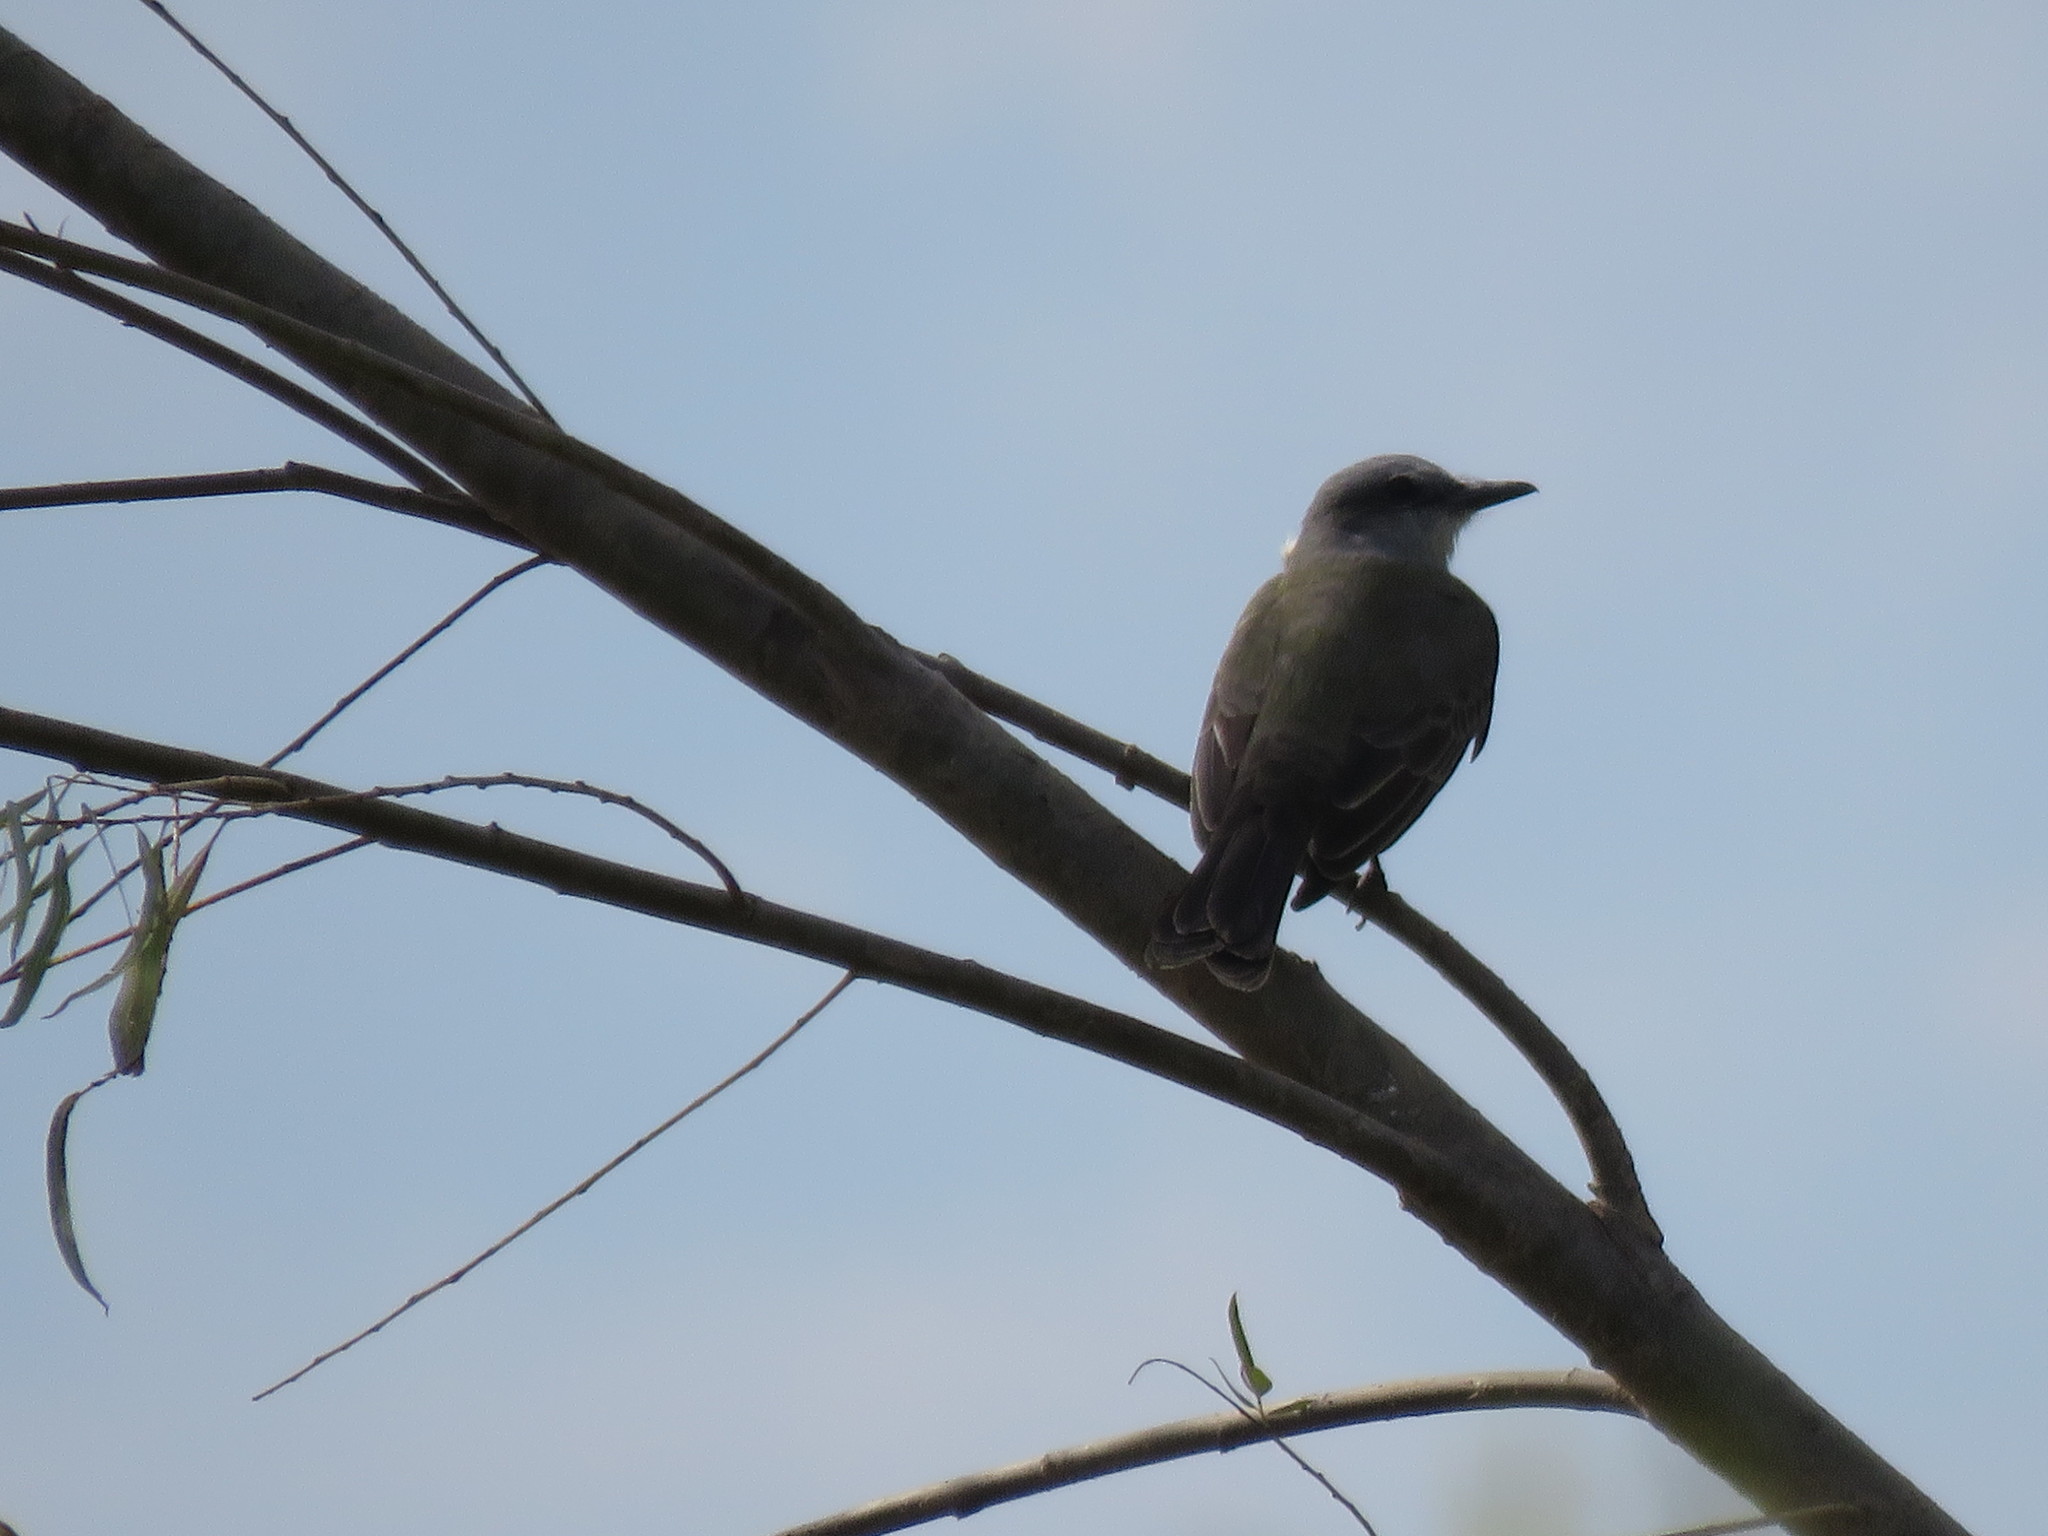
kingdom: Animalia
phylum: Chordata
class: Aves
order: Passeriformes
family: Tyrannidae
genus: Tyrannus
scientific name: Tyrannus melancholicus
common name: Tropical kingbird
